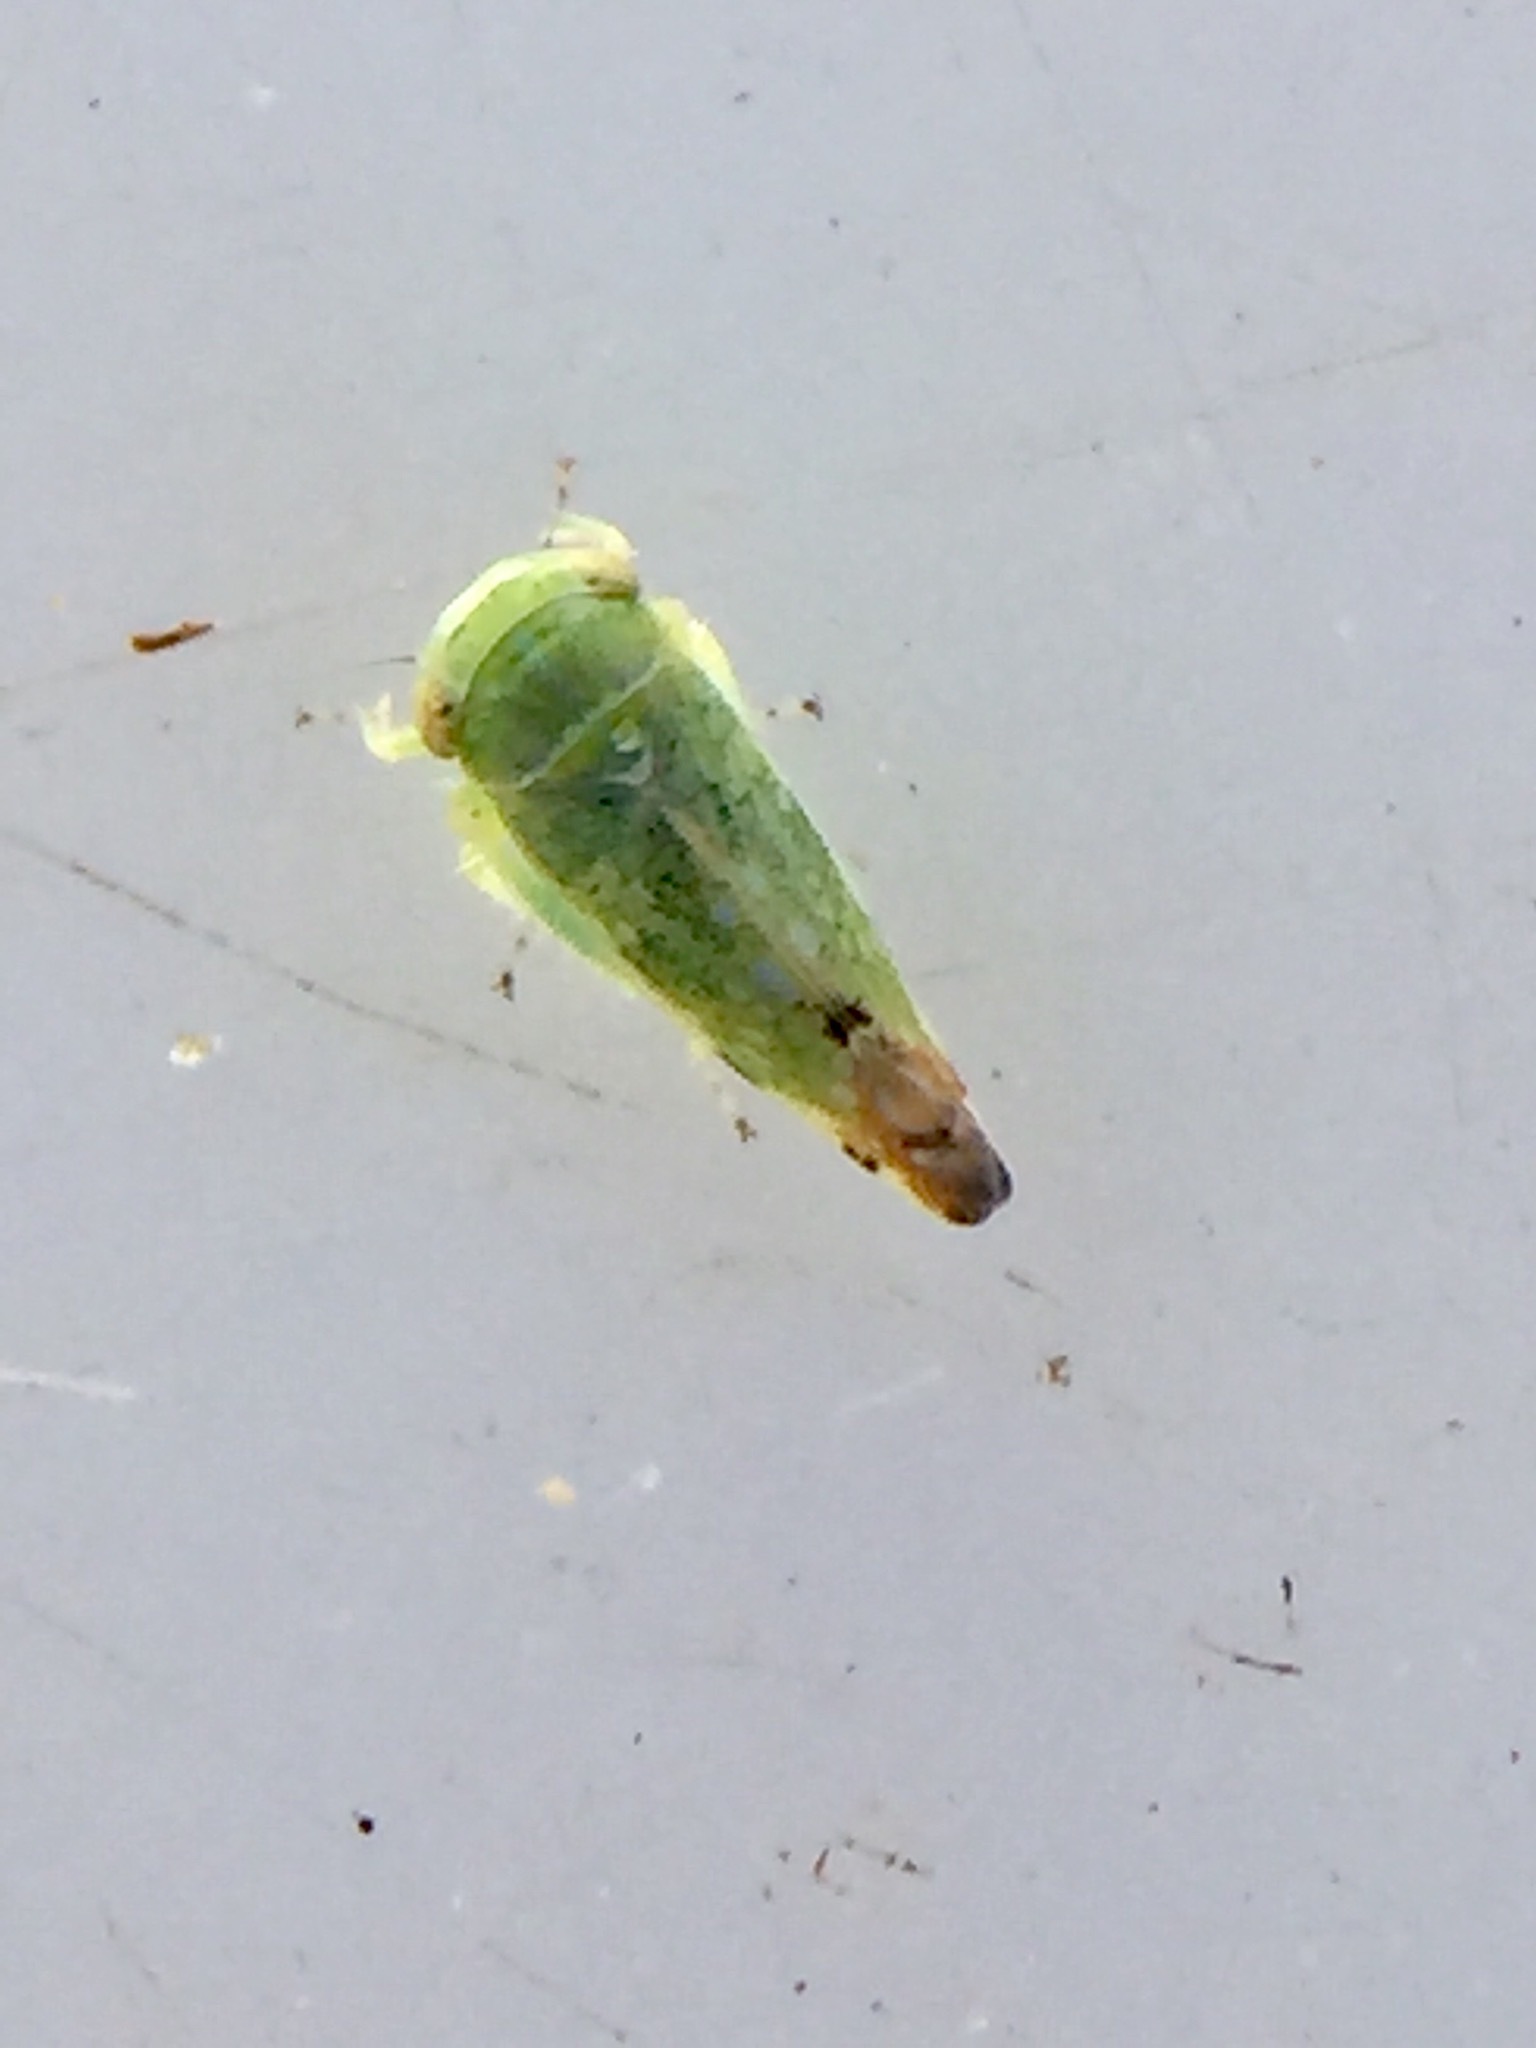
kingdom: Animalia
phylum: Arthropoda
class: Insecta
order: Hemiptera
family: Cicadellidae
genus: Opsius
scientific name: Opsius stactogalus
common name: Leafhopper
